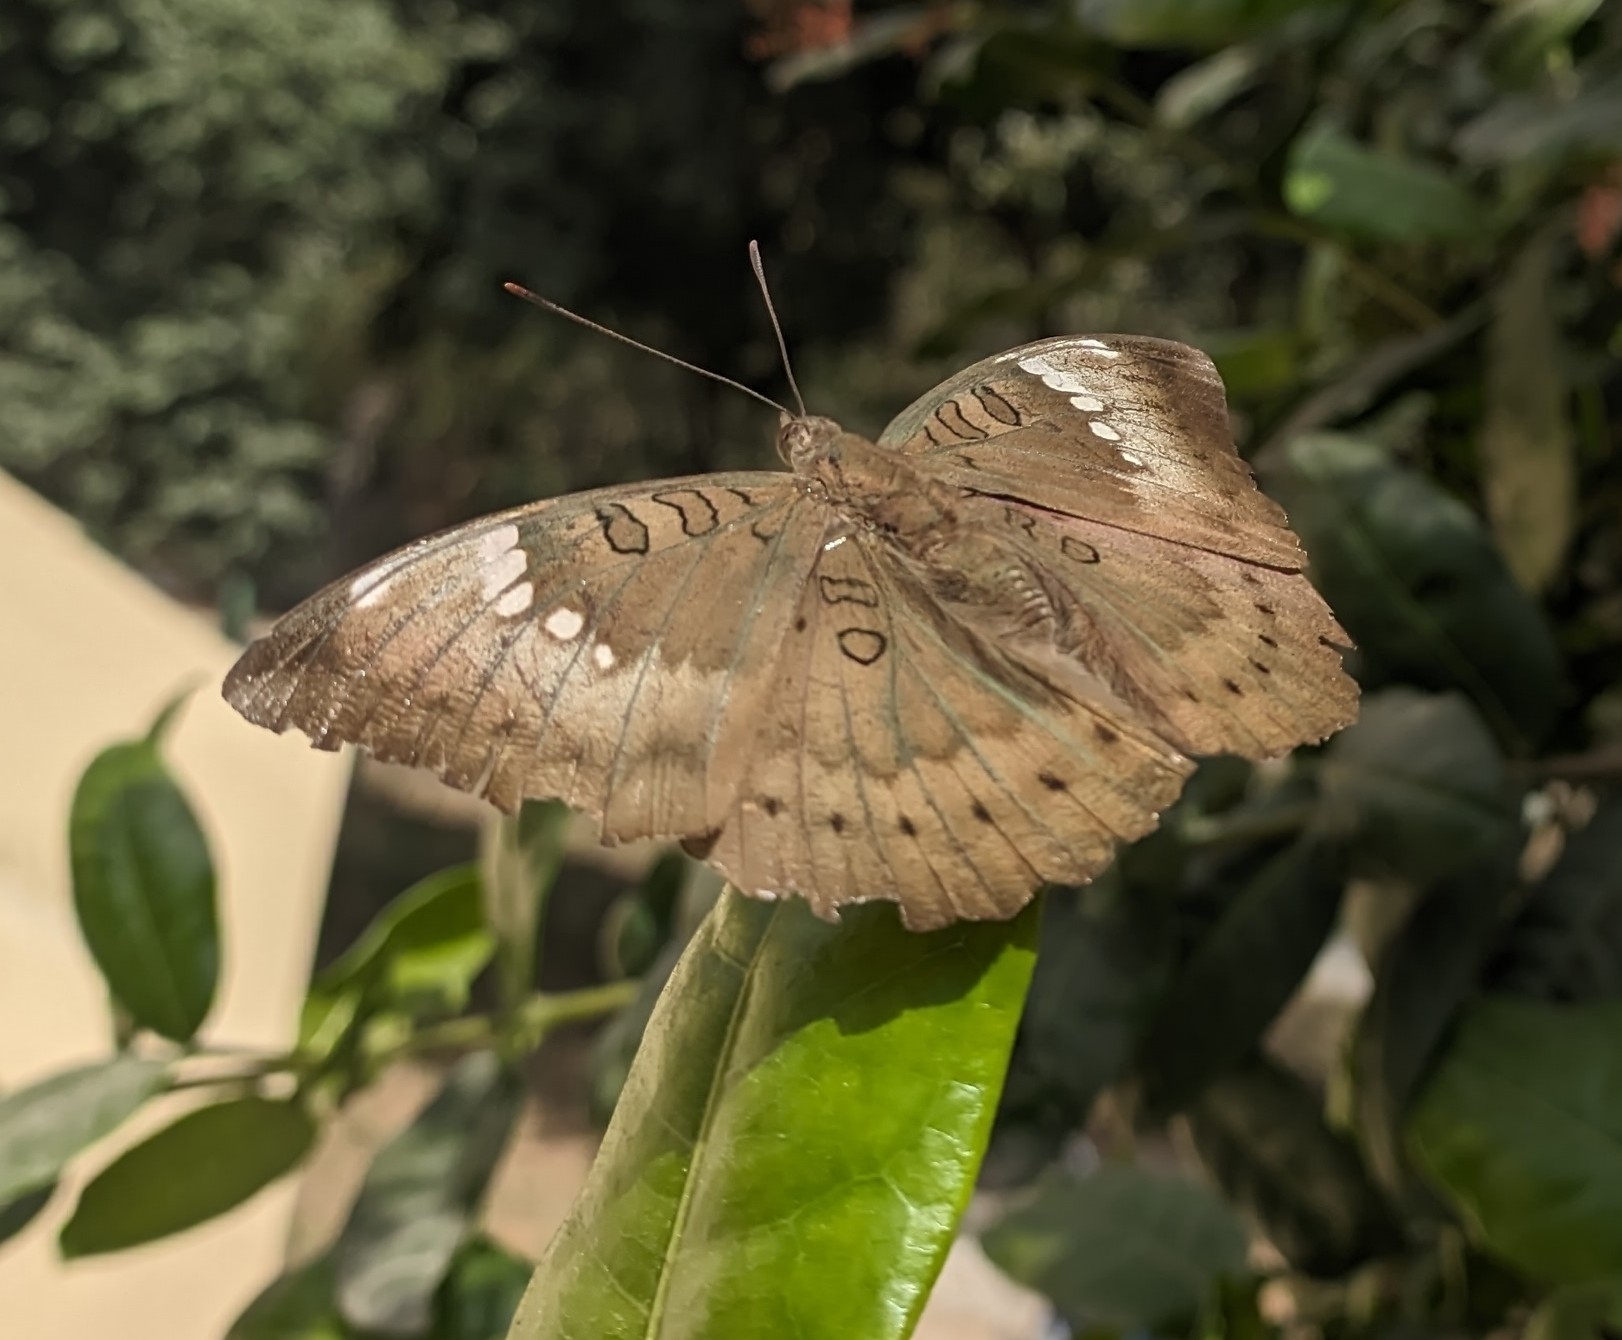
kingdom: Animalia
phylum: Arthropoda
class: Insecta
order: Lepidoptera
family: Nymphalidae
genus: Euthalia
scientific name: Euthalia aconthea
